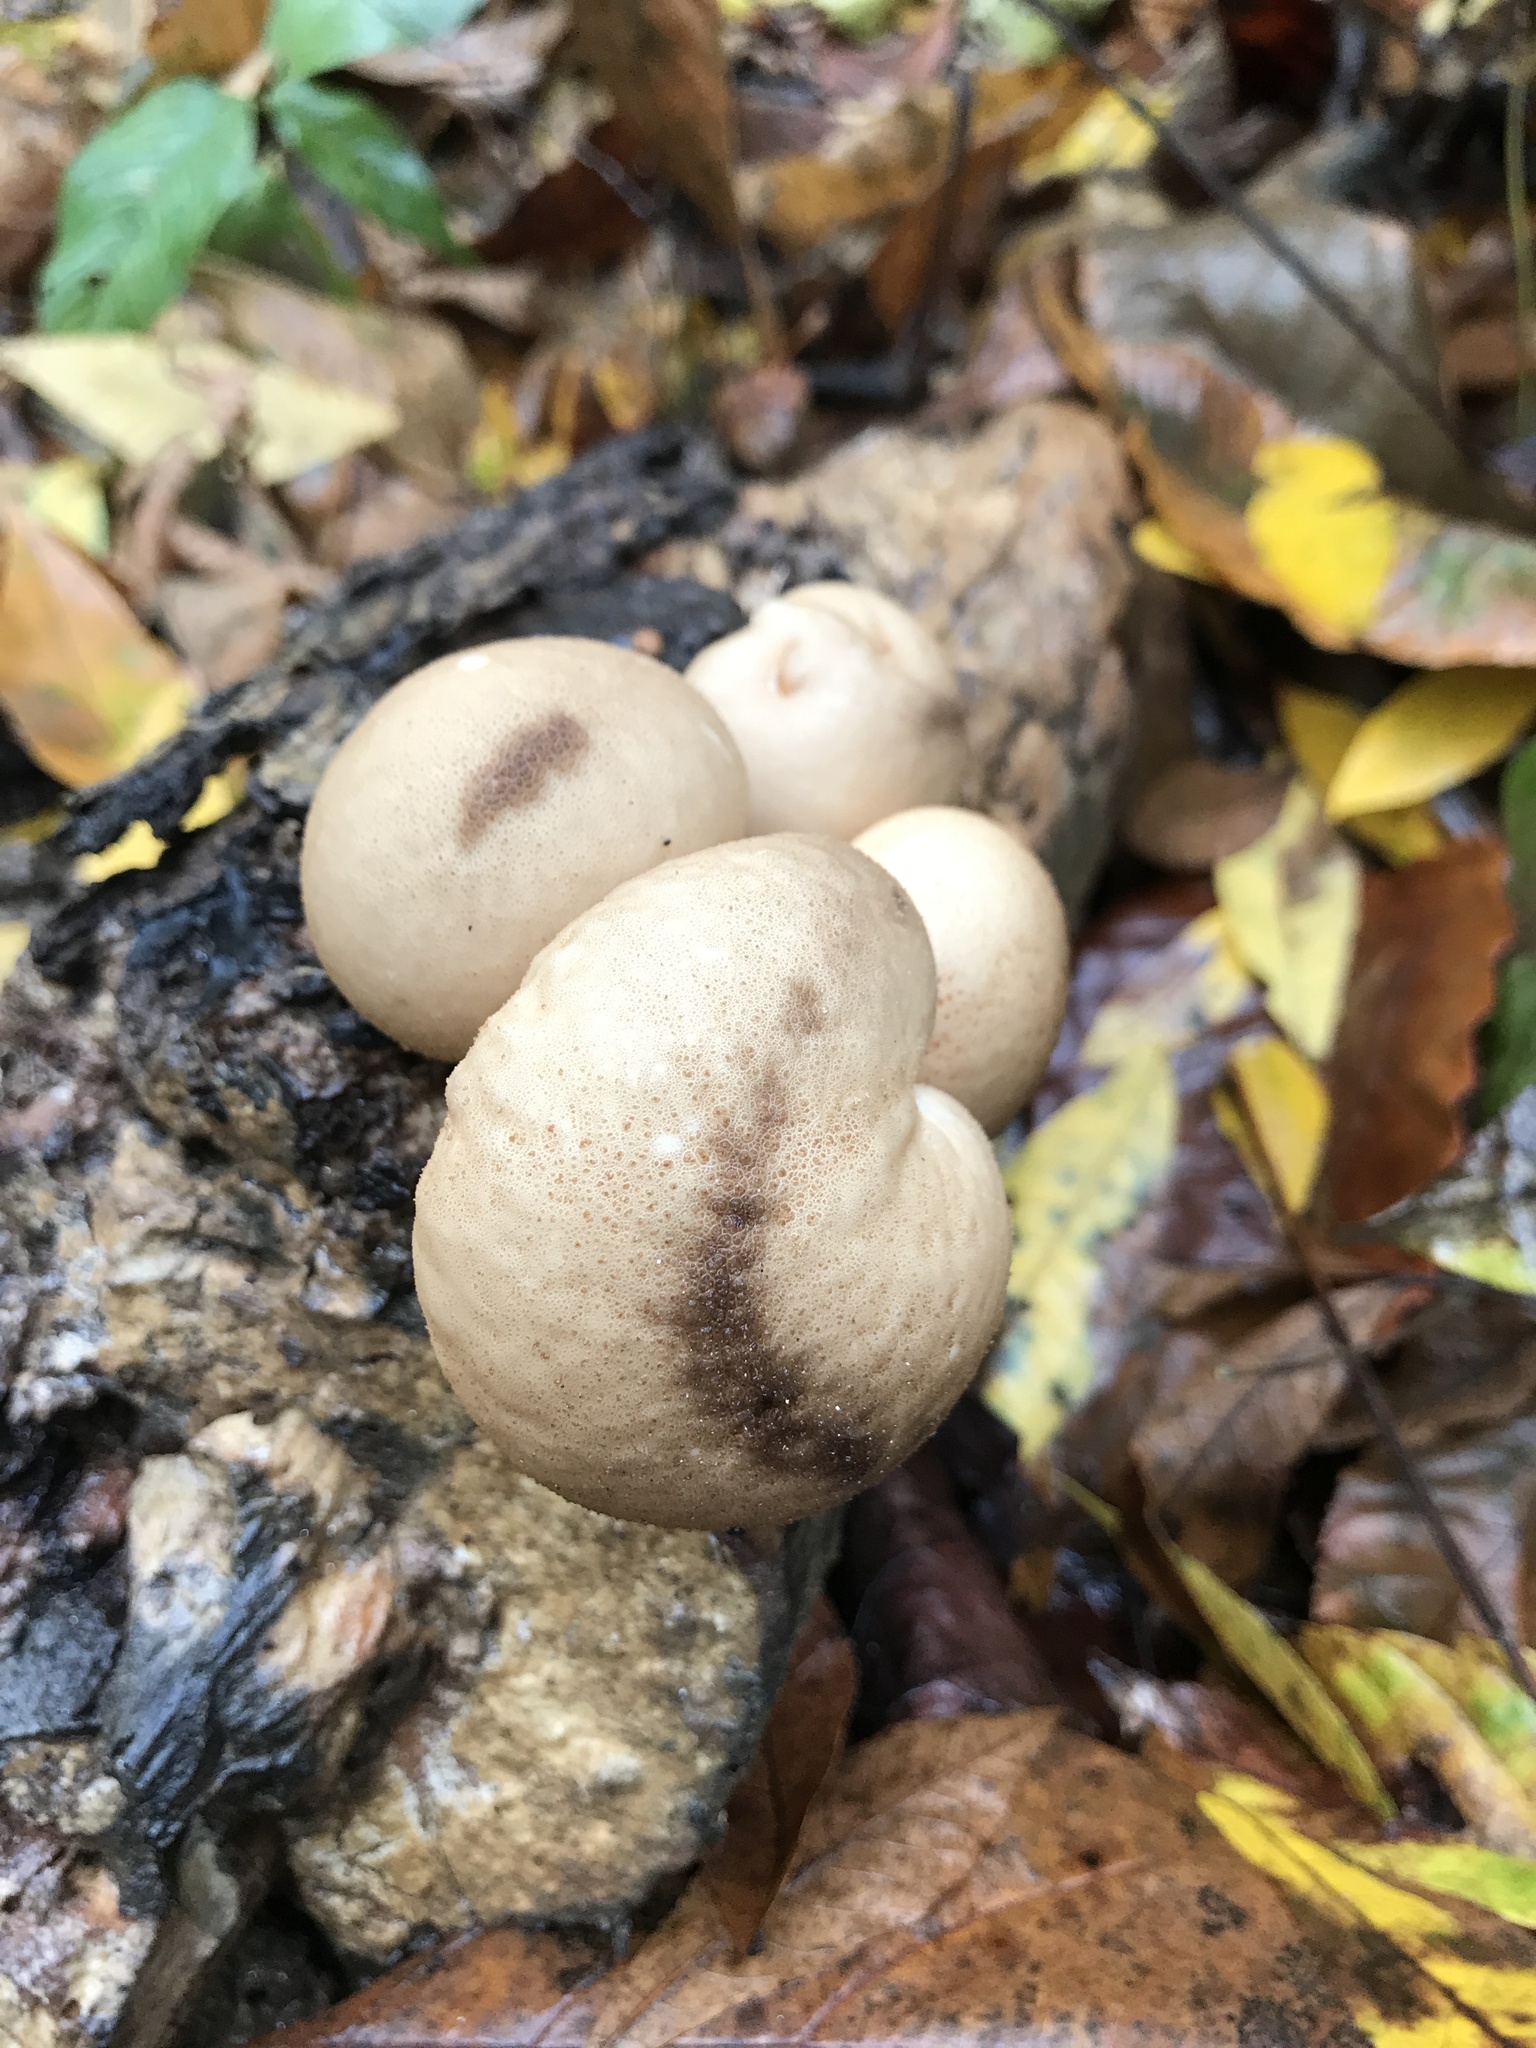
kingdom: Fungi
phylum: Basidiomycota
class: Agaricomycetes
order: Agaricales
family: Lycoperdaceae
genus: Apioperdon
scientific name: Apioperdon pyriforme
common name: Pear-shaped puffball
